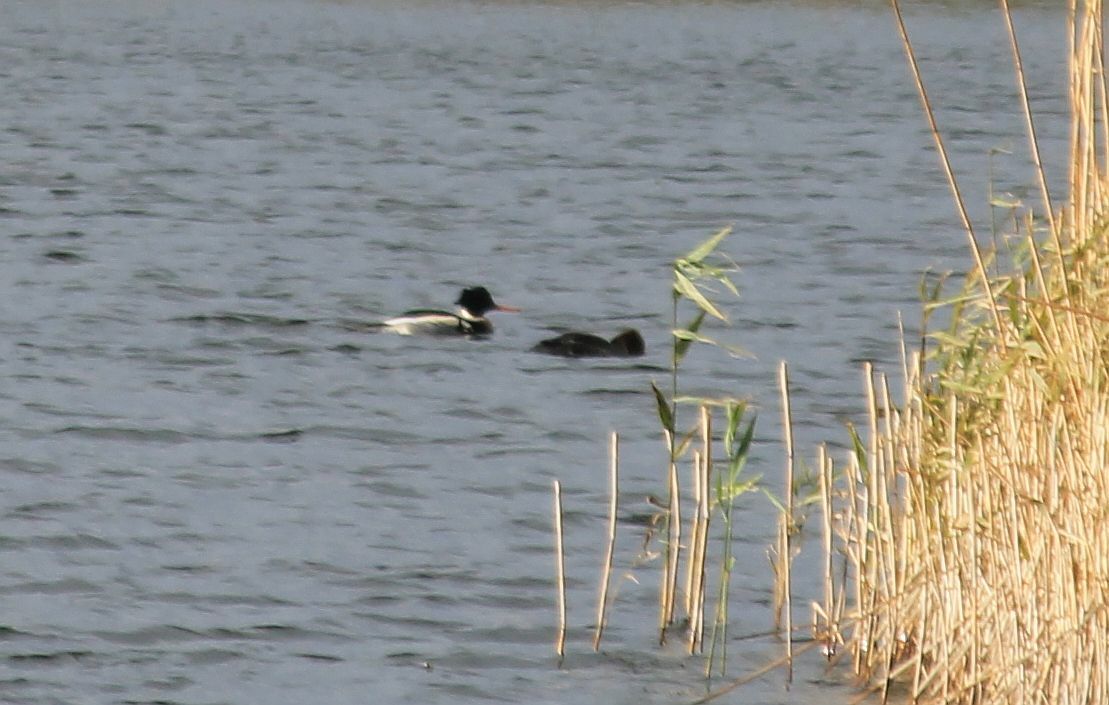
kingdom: Animalia
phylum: Chordata
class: Aves
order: Anseriformes
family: Anatidae
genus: Mergus
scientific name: Mergus serrator
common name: Red-breasted merganser
